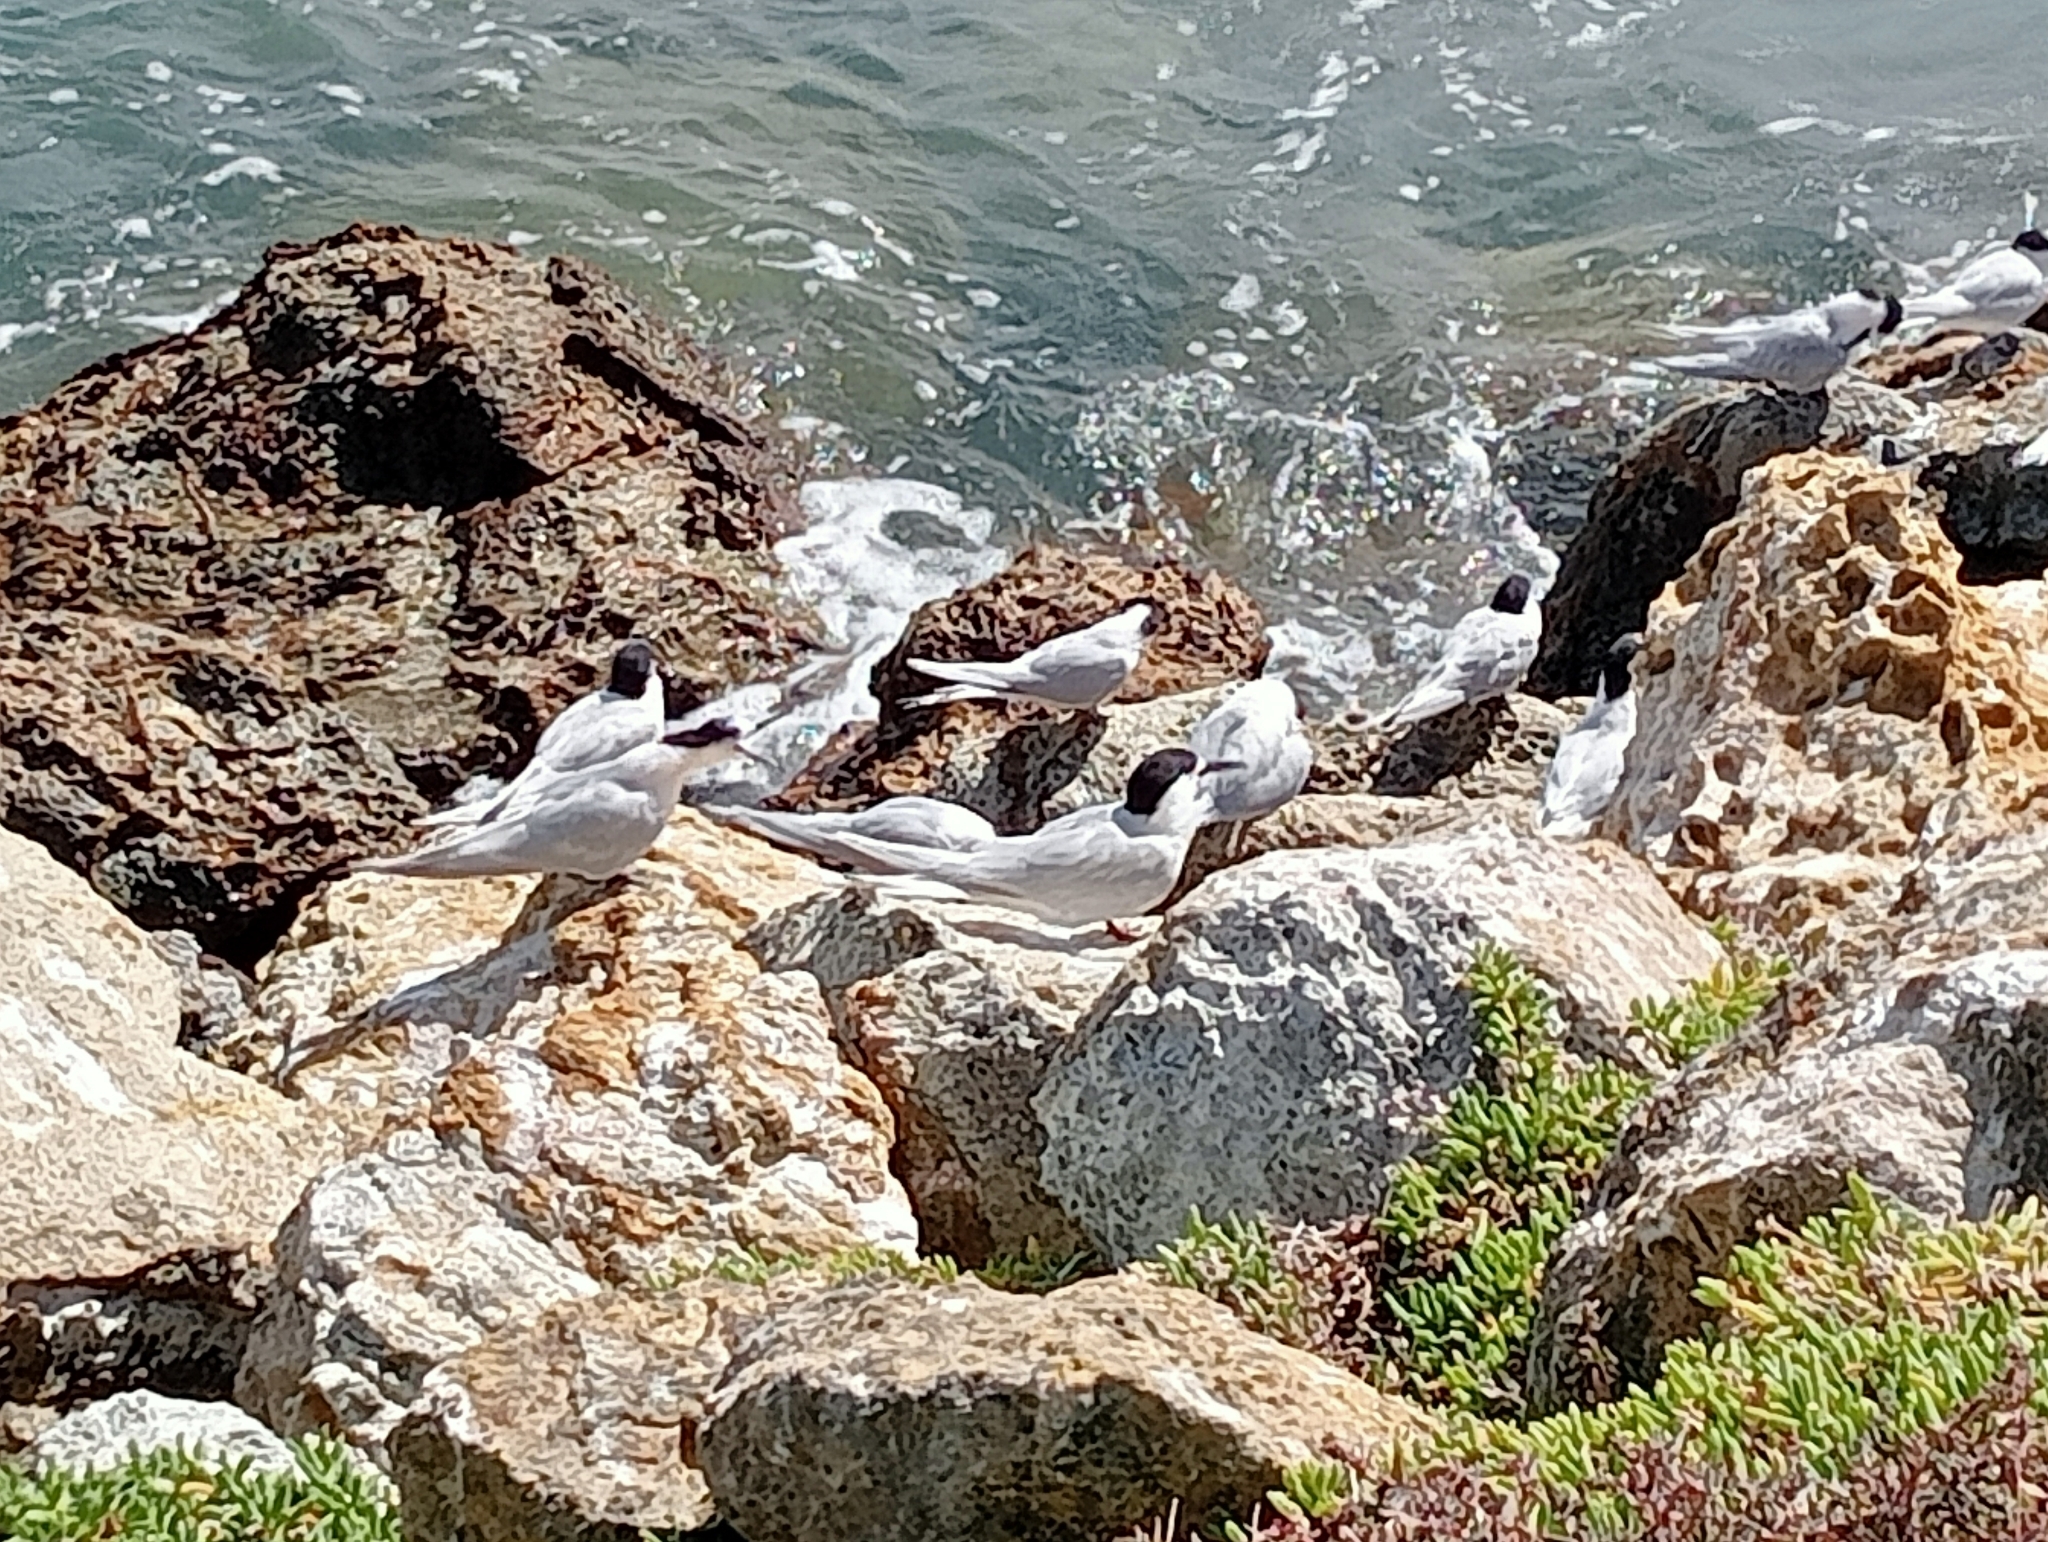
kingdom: Animalia
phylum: Chordata
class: Aves
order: Charadriiformes
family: Laridae
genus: Sterna
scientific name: Sterna striata
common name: White-fronted tern
